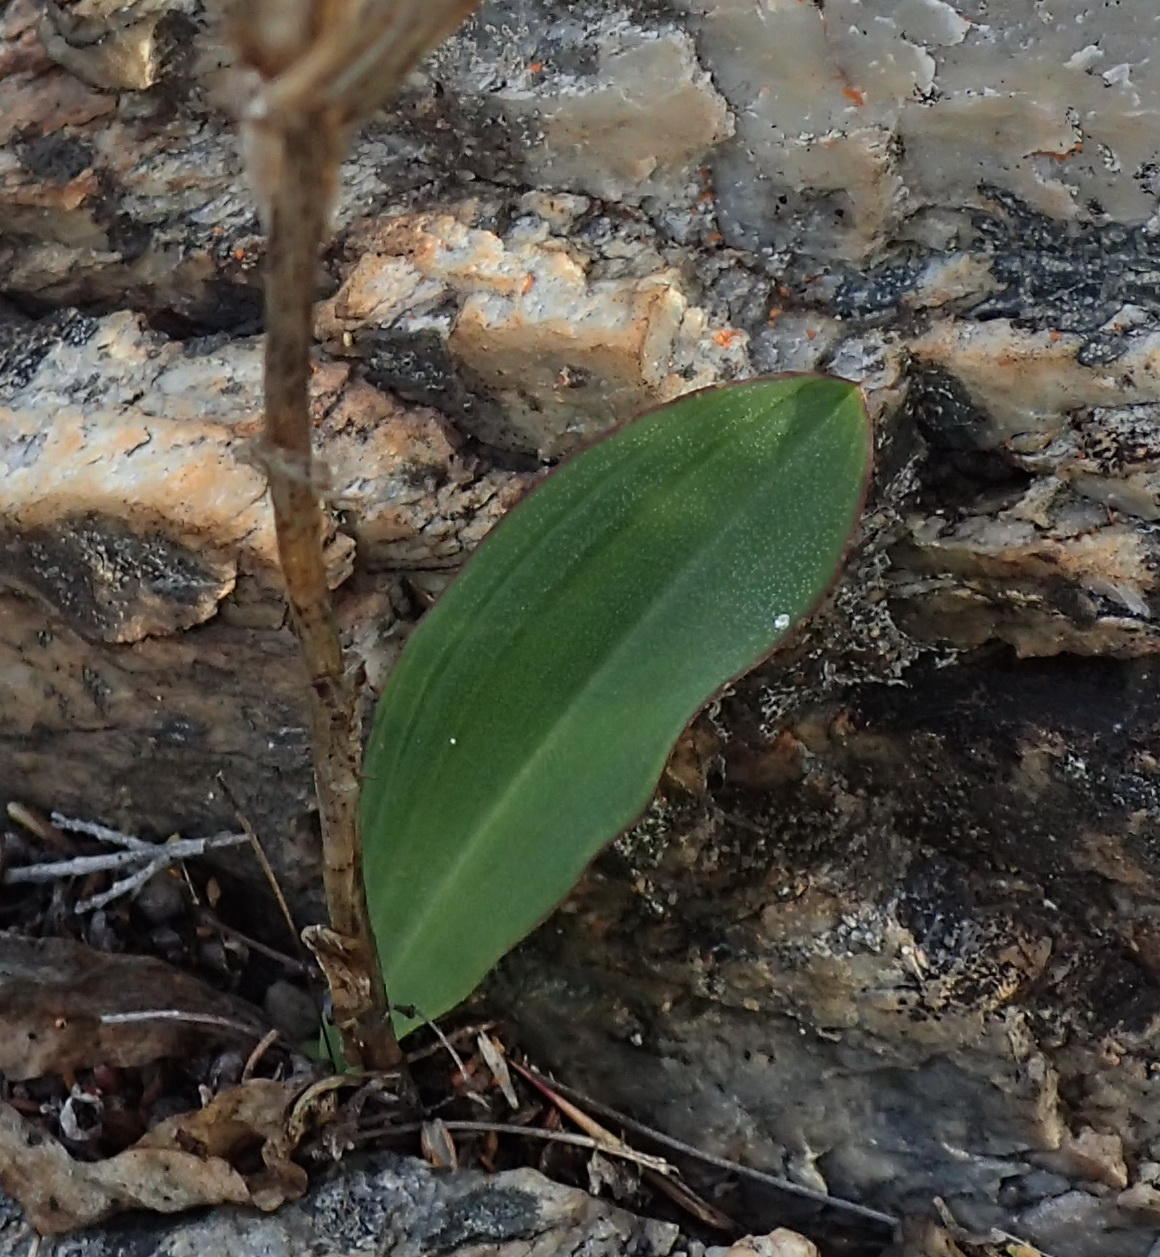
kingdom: Plantae
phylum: Tracheophyta
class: Liliopsida
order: Asparagales
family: Orchidaceae
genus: Disa
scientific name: Disa comosa
